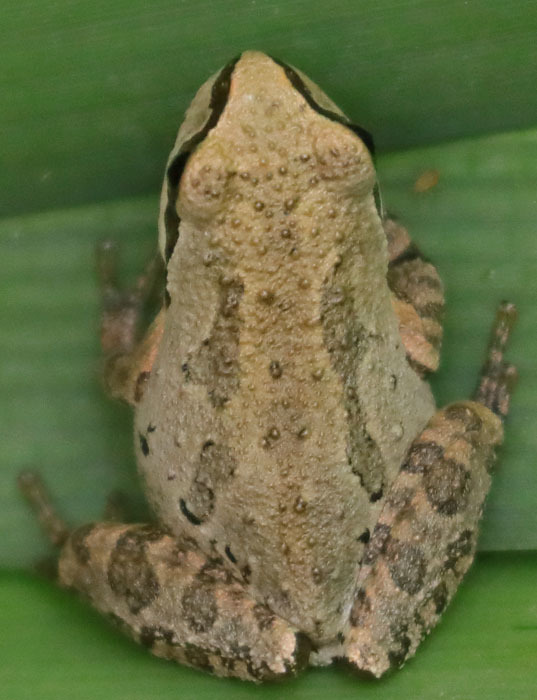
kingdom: Animalia
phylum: Chordata
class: Amphibia
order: Anura
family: Hylidae
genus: Pseudacris
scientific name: Pseudacris regilla
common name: Pacific chorus frog
